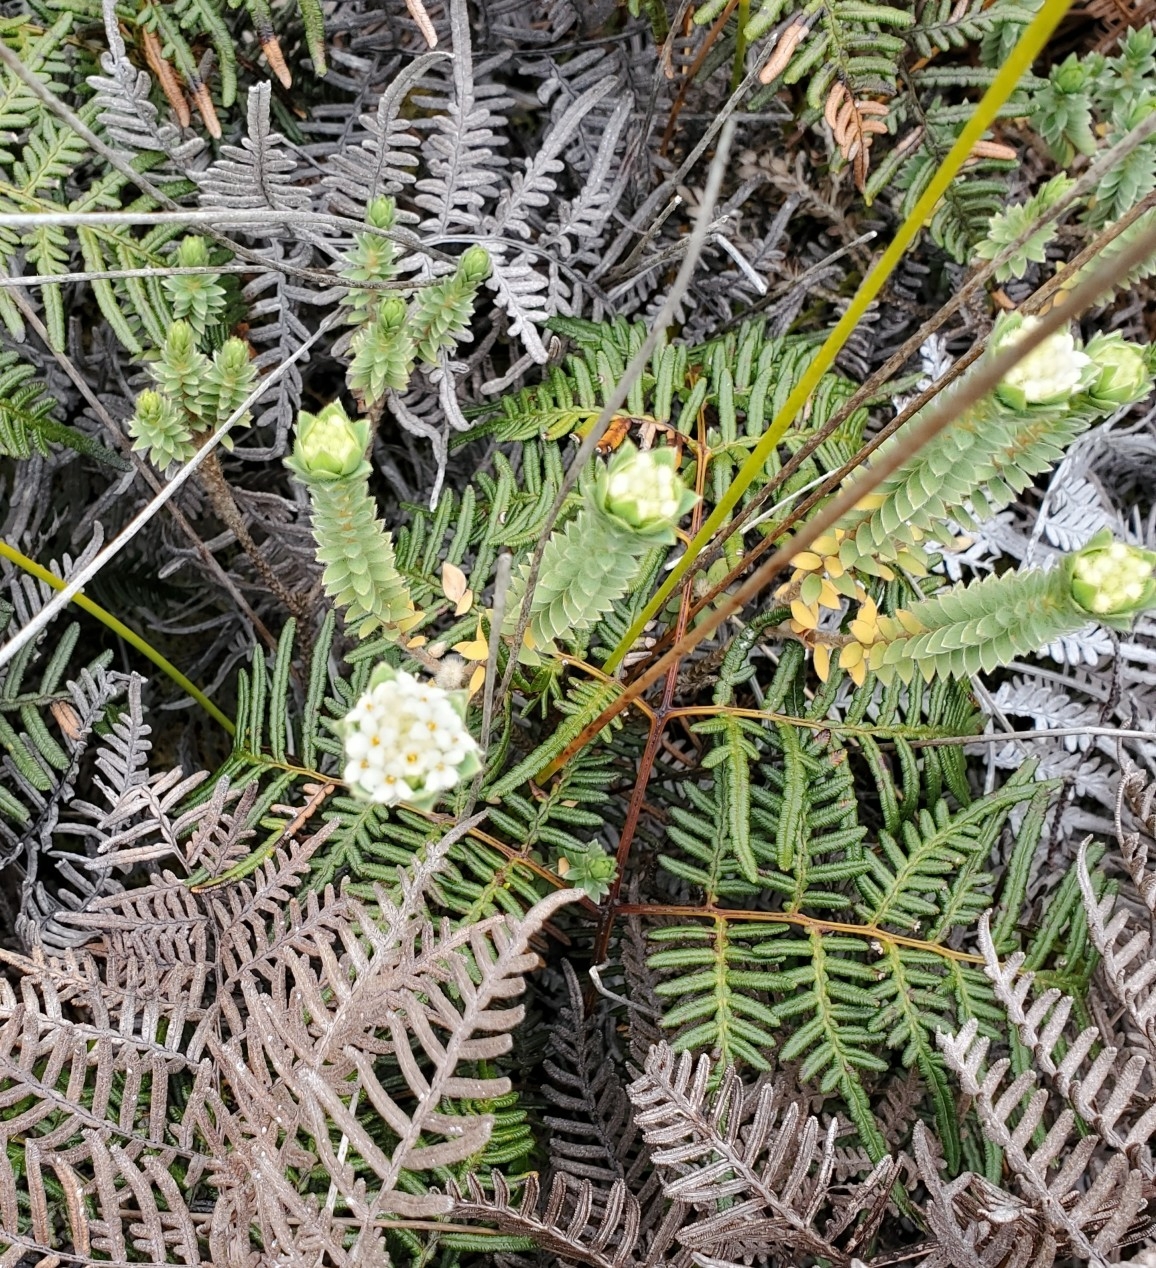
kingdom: Plantae
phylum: Tracheophyta
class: Magnoliopsida
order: Malvales
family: Thymelaeaceae
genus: Pimelea
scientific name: Pimelea villosa
